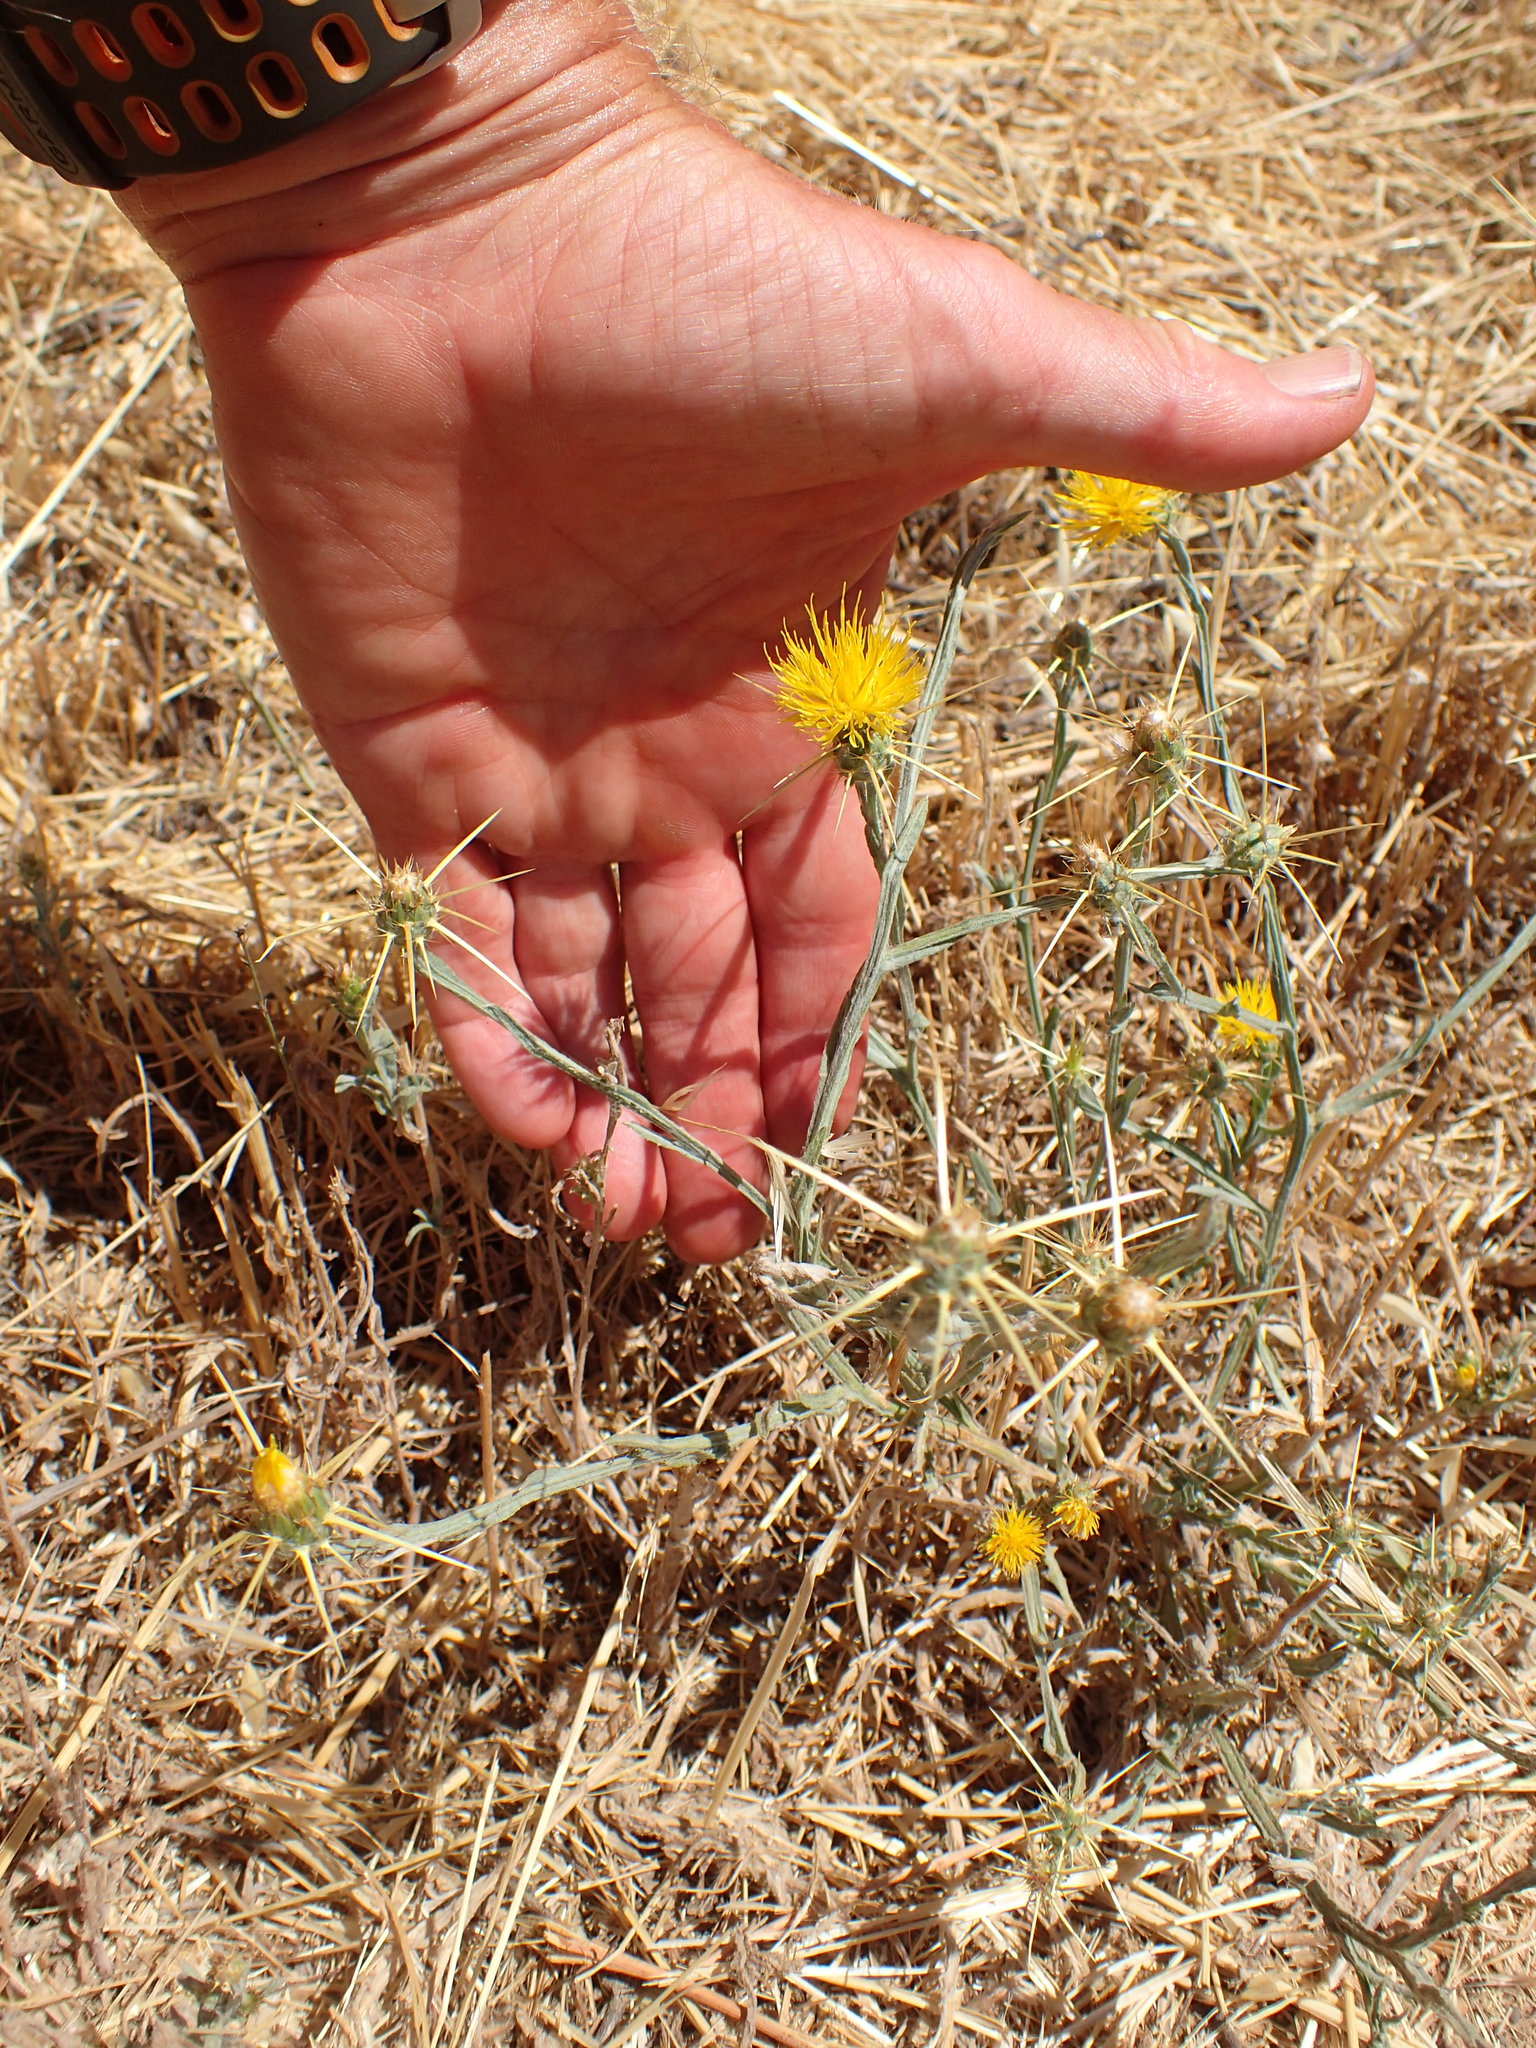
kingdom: Plantae
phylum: Tracheophyta
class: Magnoliopsida
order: Asterales
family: Asteraceae
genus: Centaurea
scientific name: Centaurea solstitialis
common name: Yellow star-thistle
